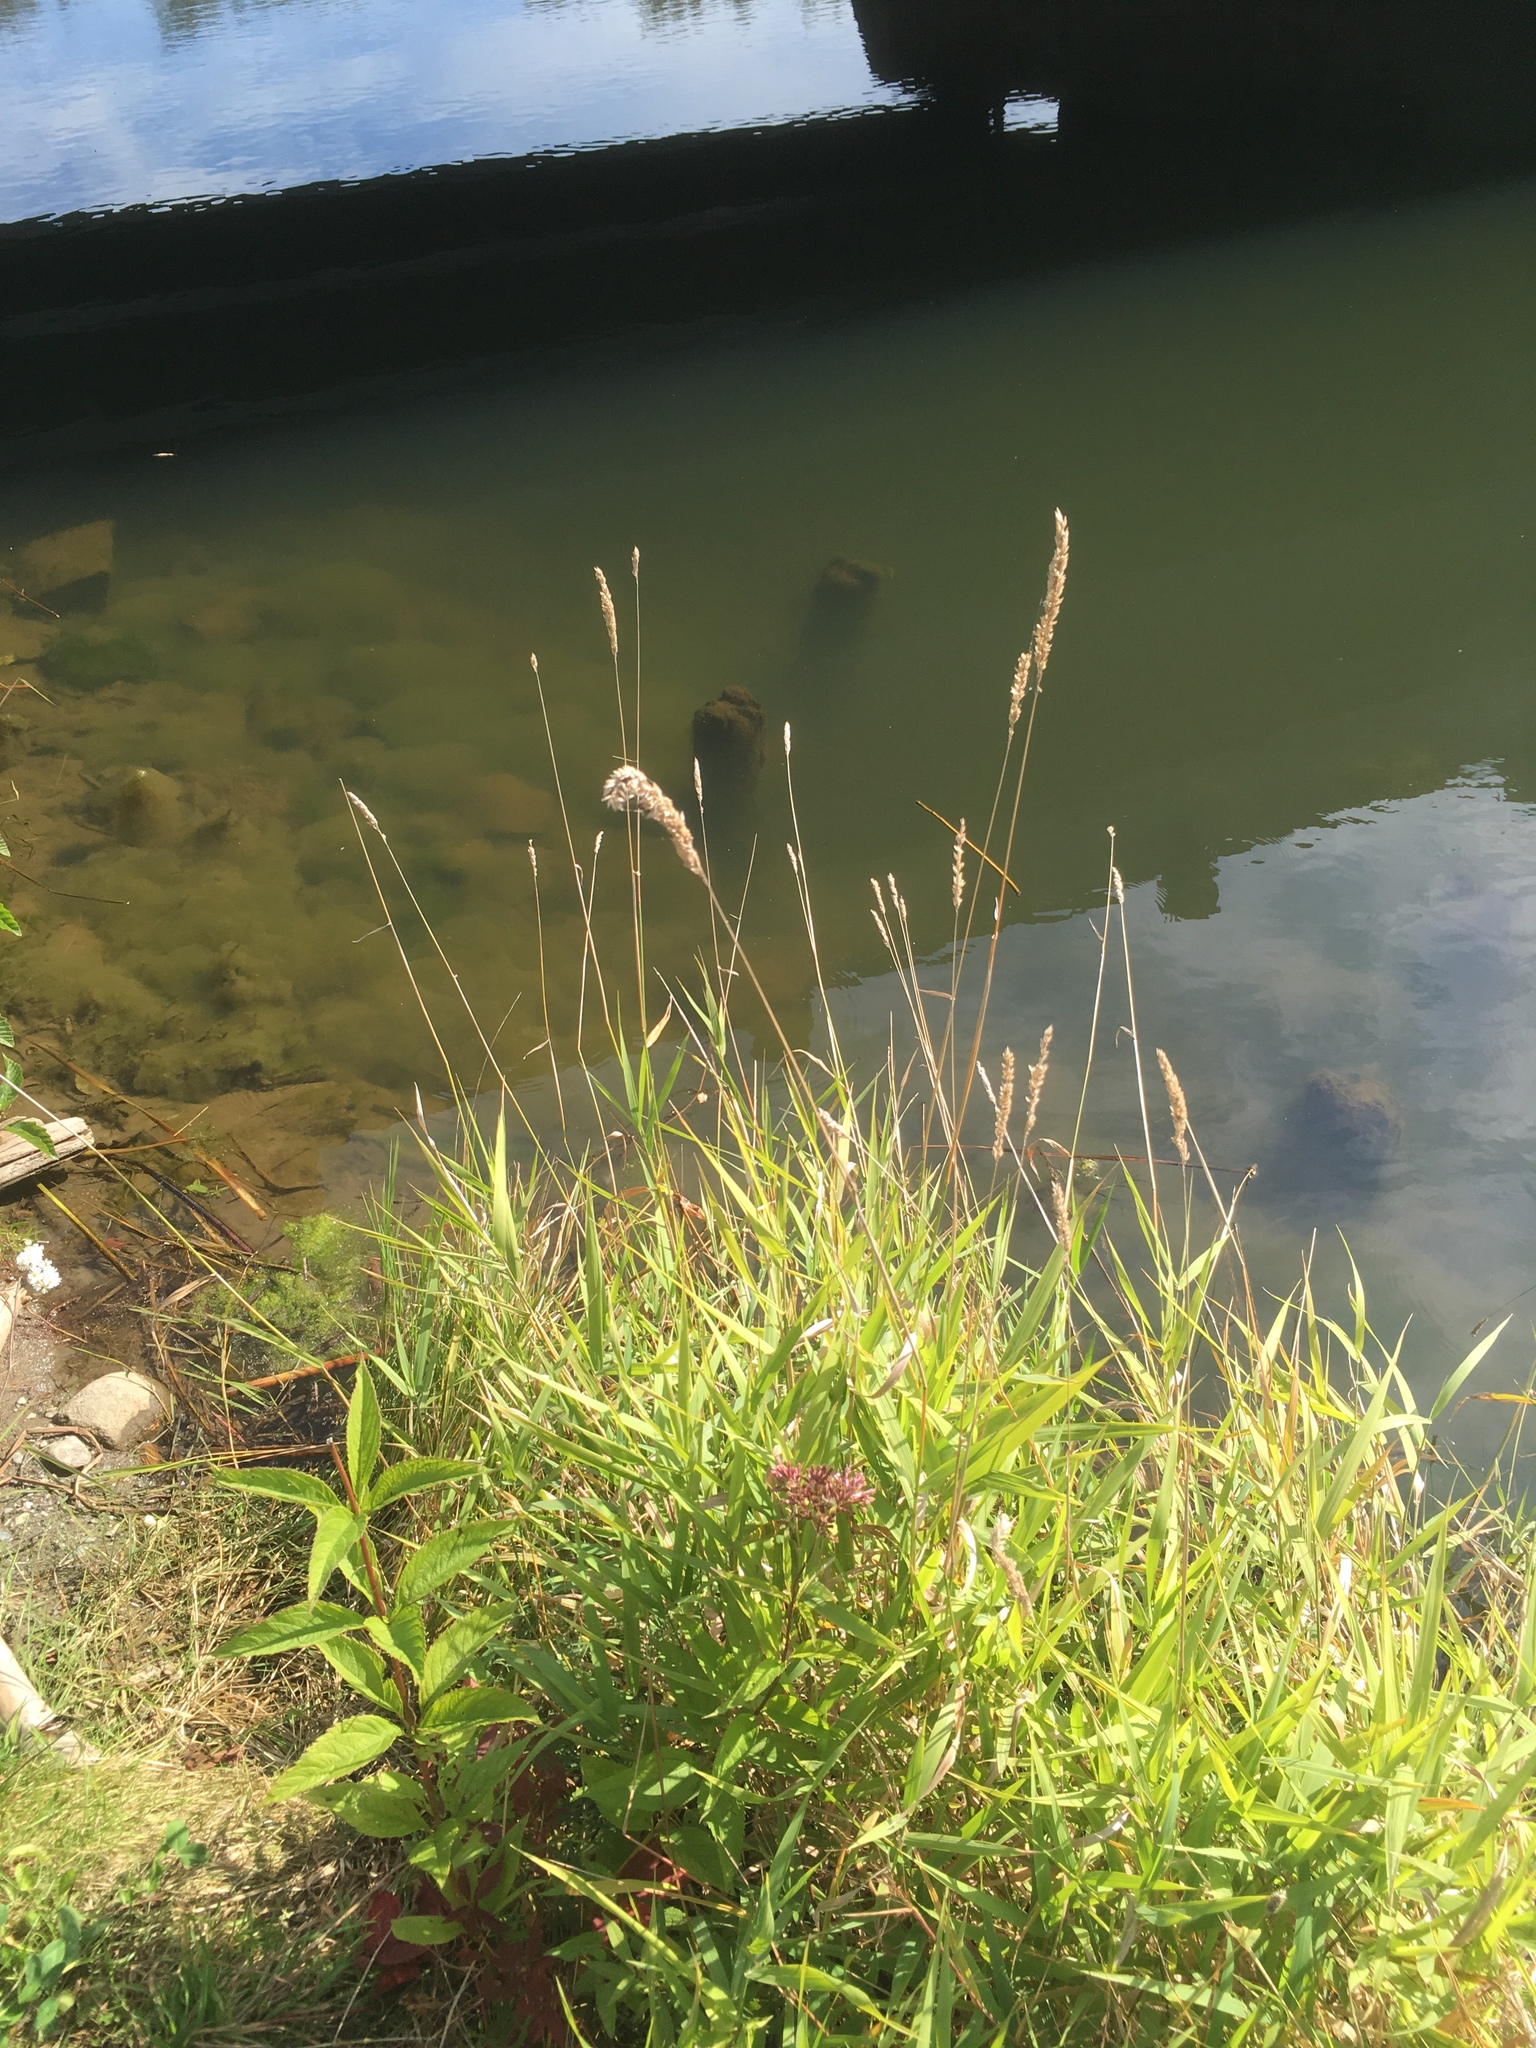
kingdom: Plantae
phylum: Tracheophyta
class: Liliopsida
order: Poales
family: Poaceae
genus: Phalaris
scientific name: Phalaris arundinacea
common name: Reed canary-grass
